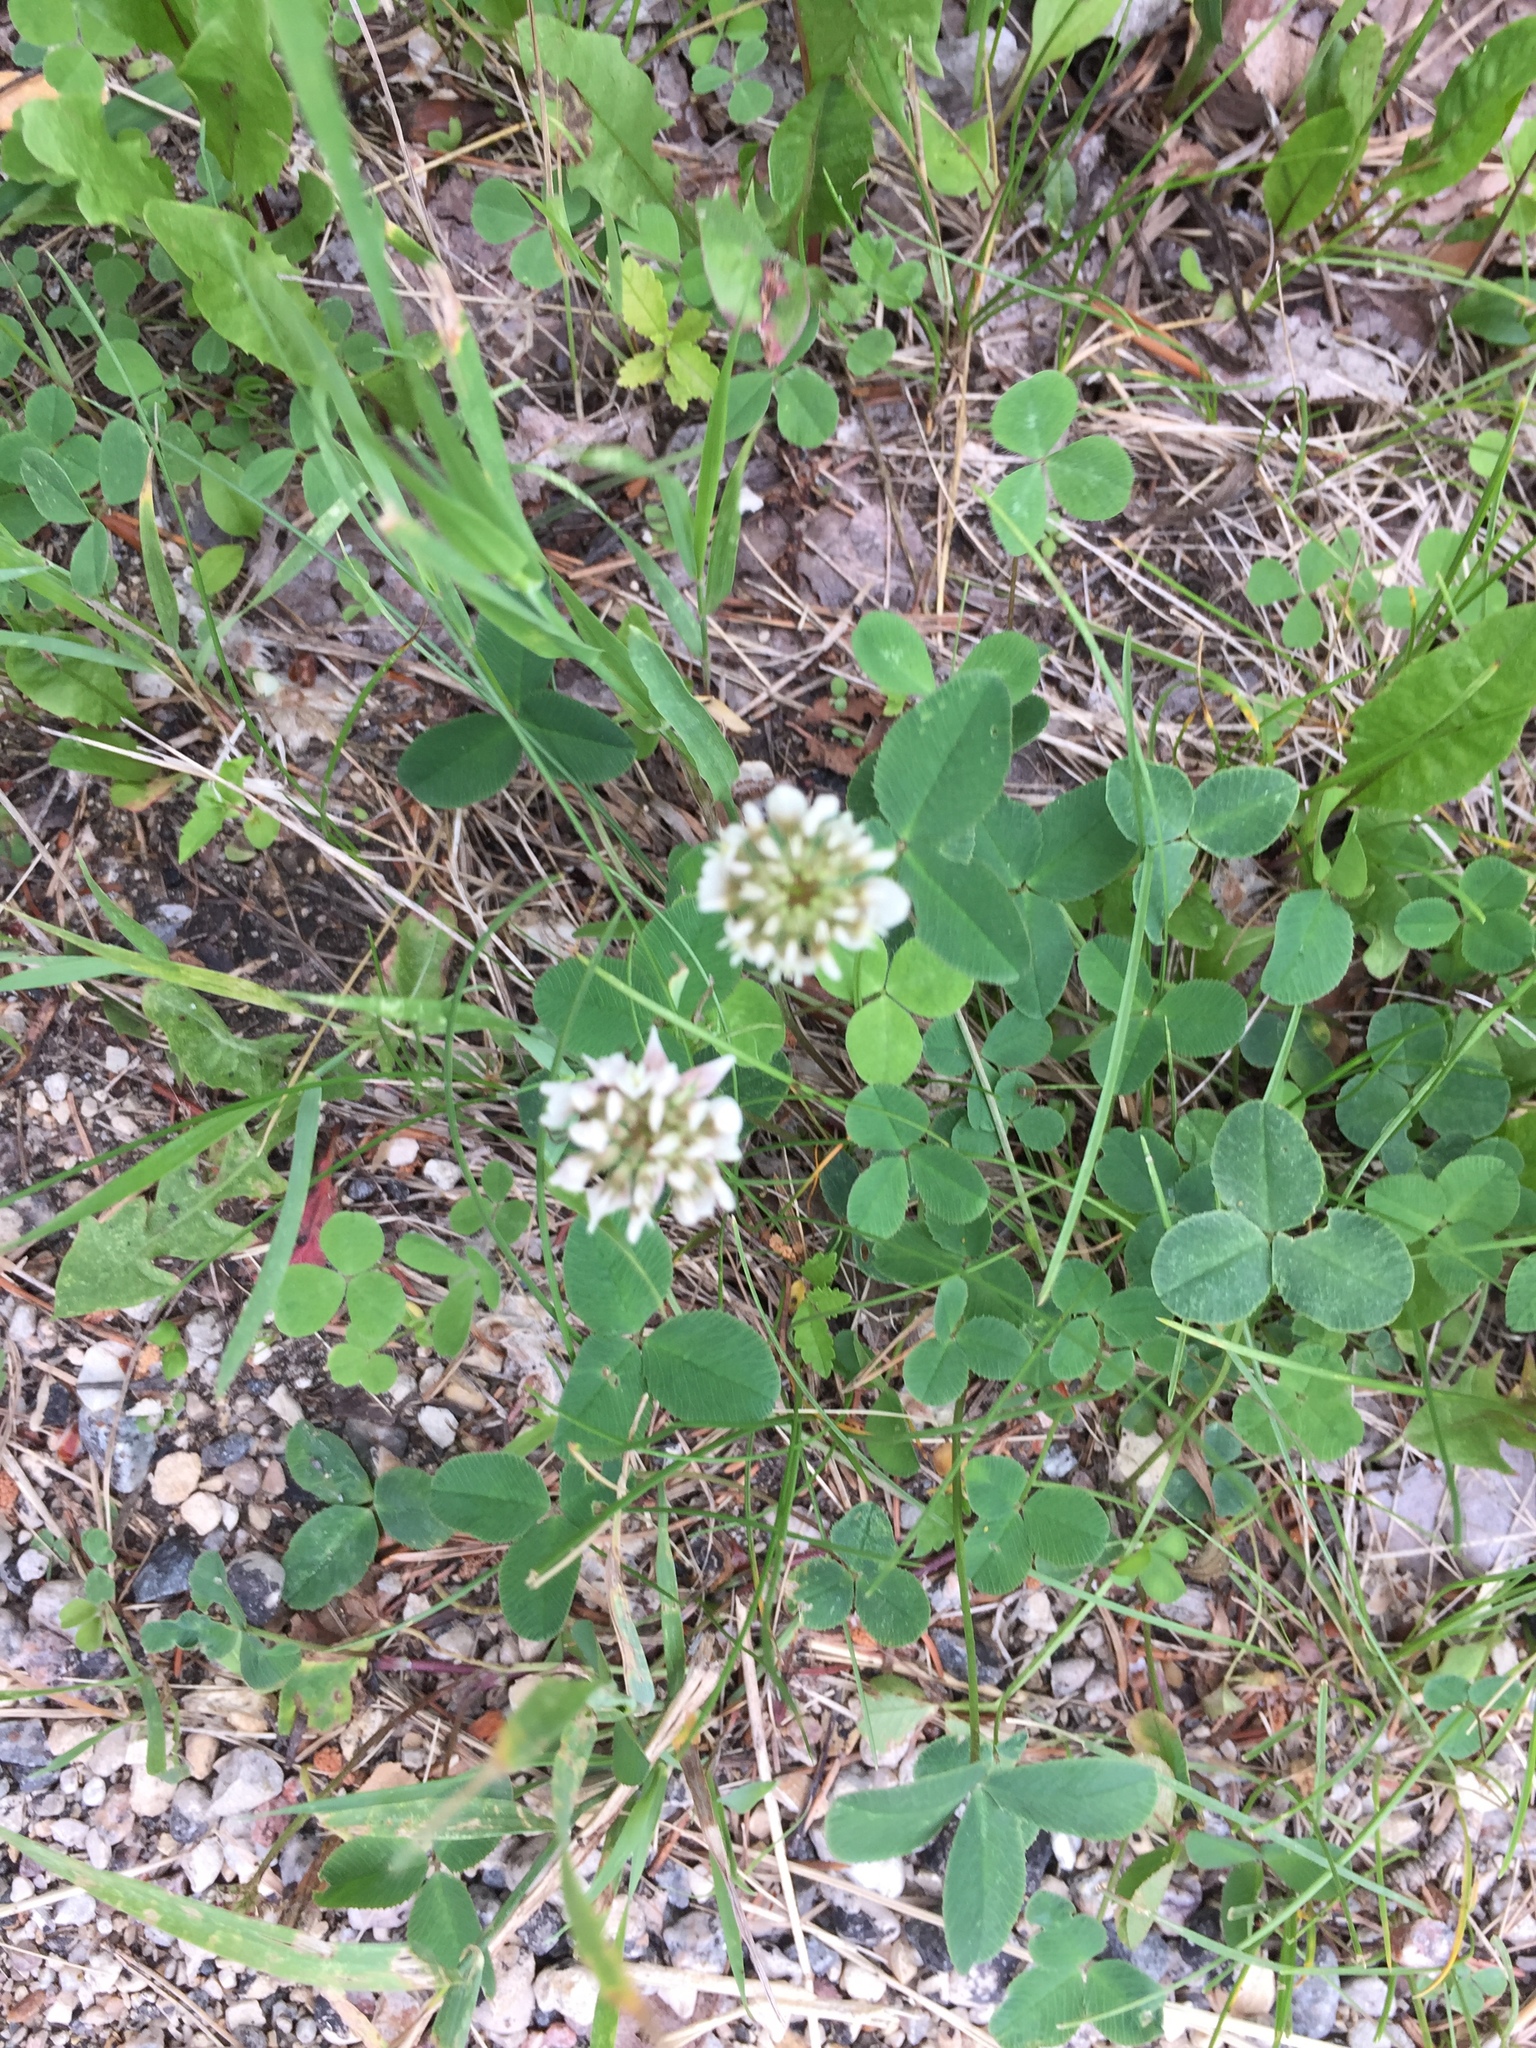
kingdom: Plantae
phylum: Tracheophyta
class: Magnoliopsida
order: Fabales
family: Fabaceae
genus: Trifolium
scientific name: Trifolium repens
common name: White clover
